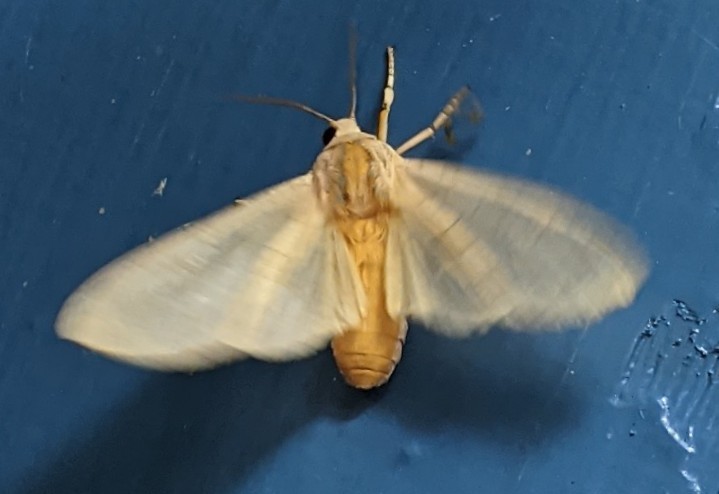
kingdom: Animalia
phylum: Arthropoda
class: Insecta
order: Lepidoptera
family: Erebidae
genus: Halysidota
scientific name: Halysidota tessellaris
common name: Banded tussock moth
